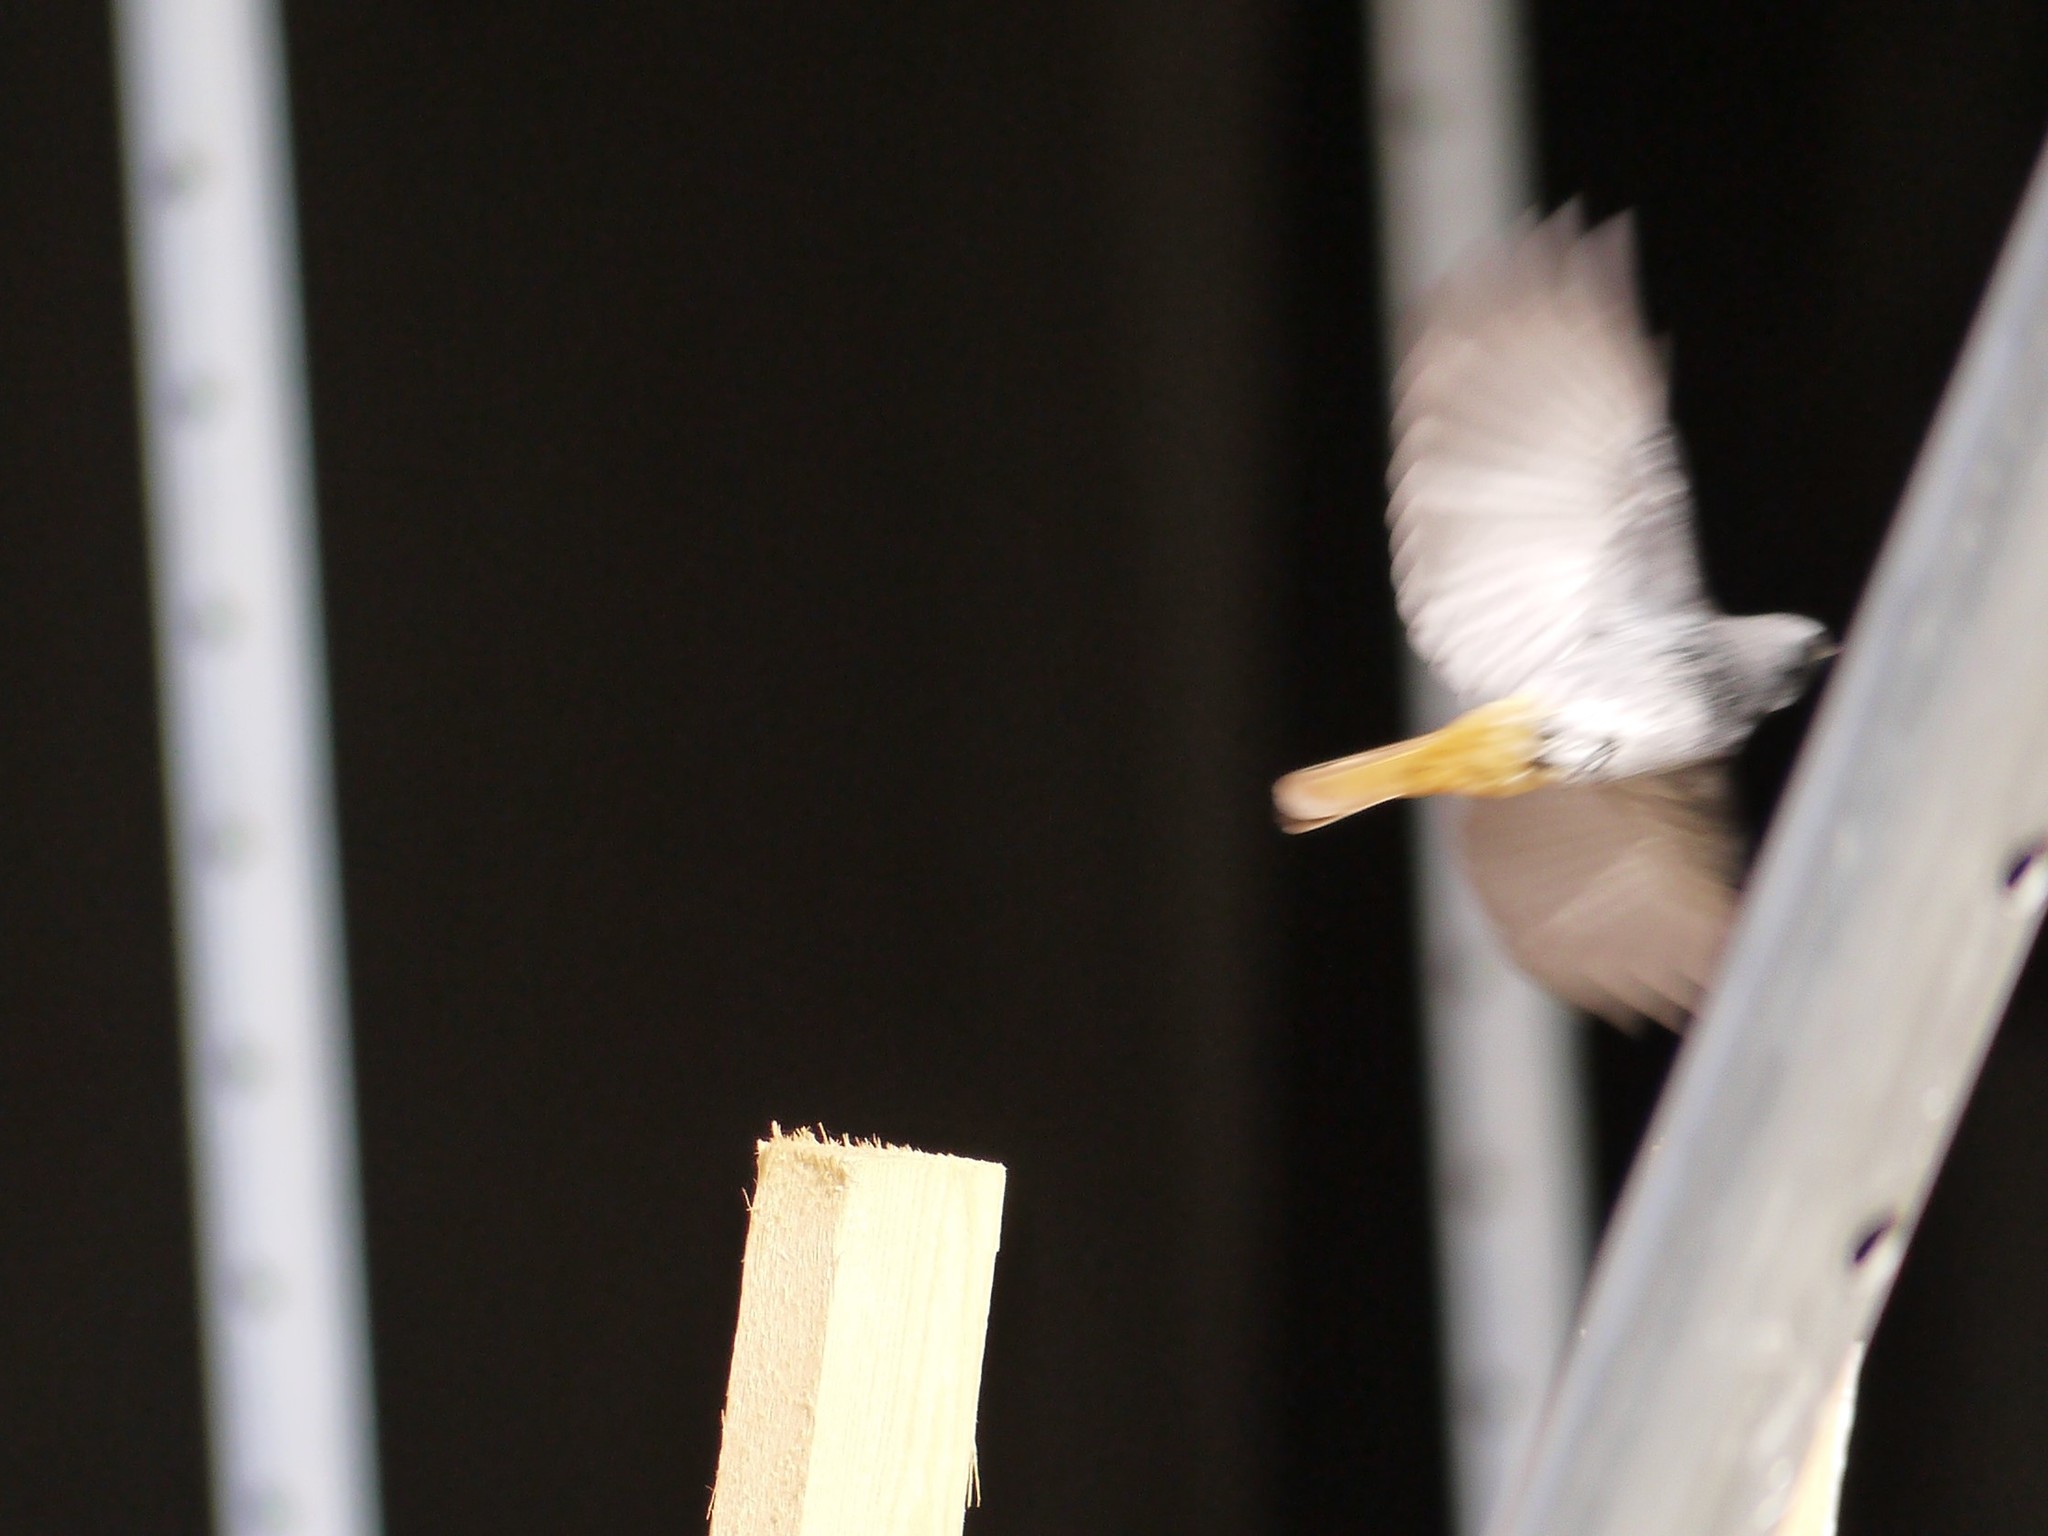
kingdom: Animalia
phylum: Chordata
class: Aves
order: Passeriformes
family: Muscicapidae
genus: Phoenicurus
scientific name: Phoenicurus ochruros
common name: Black redstart
